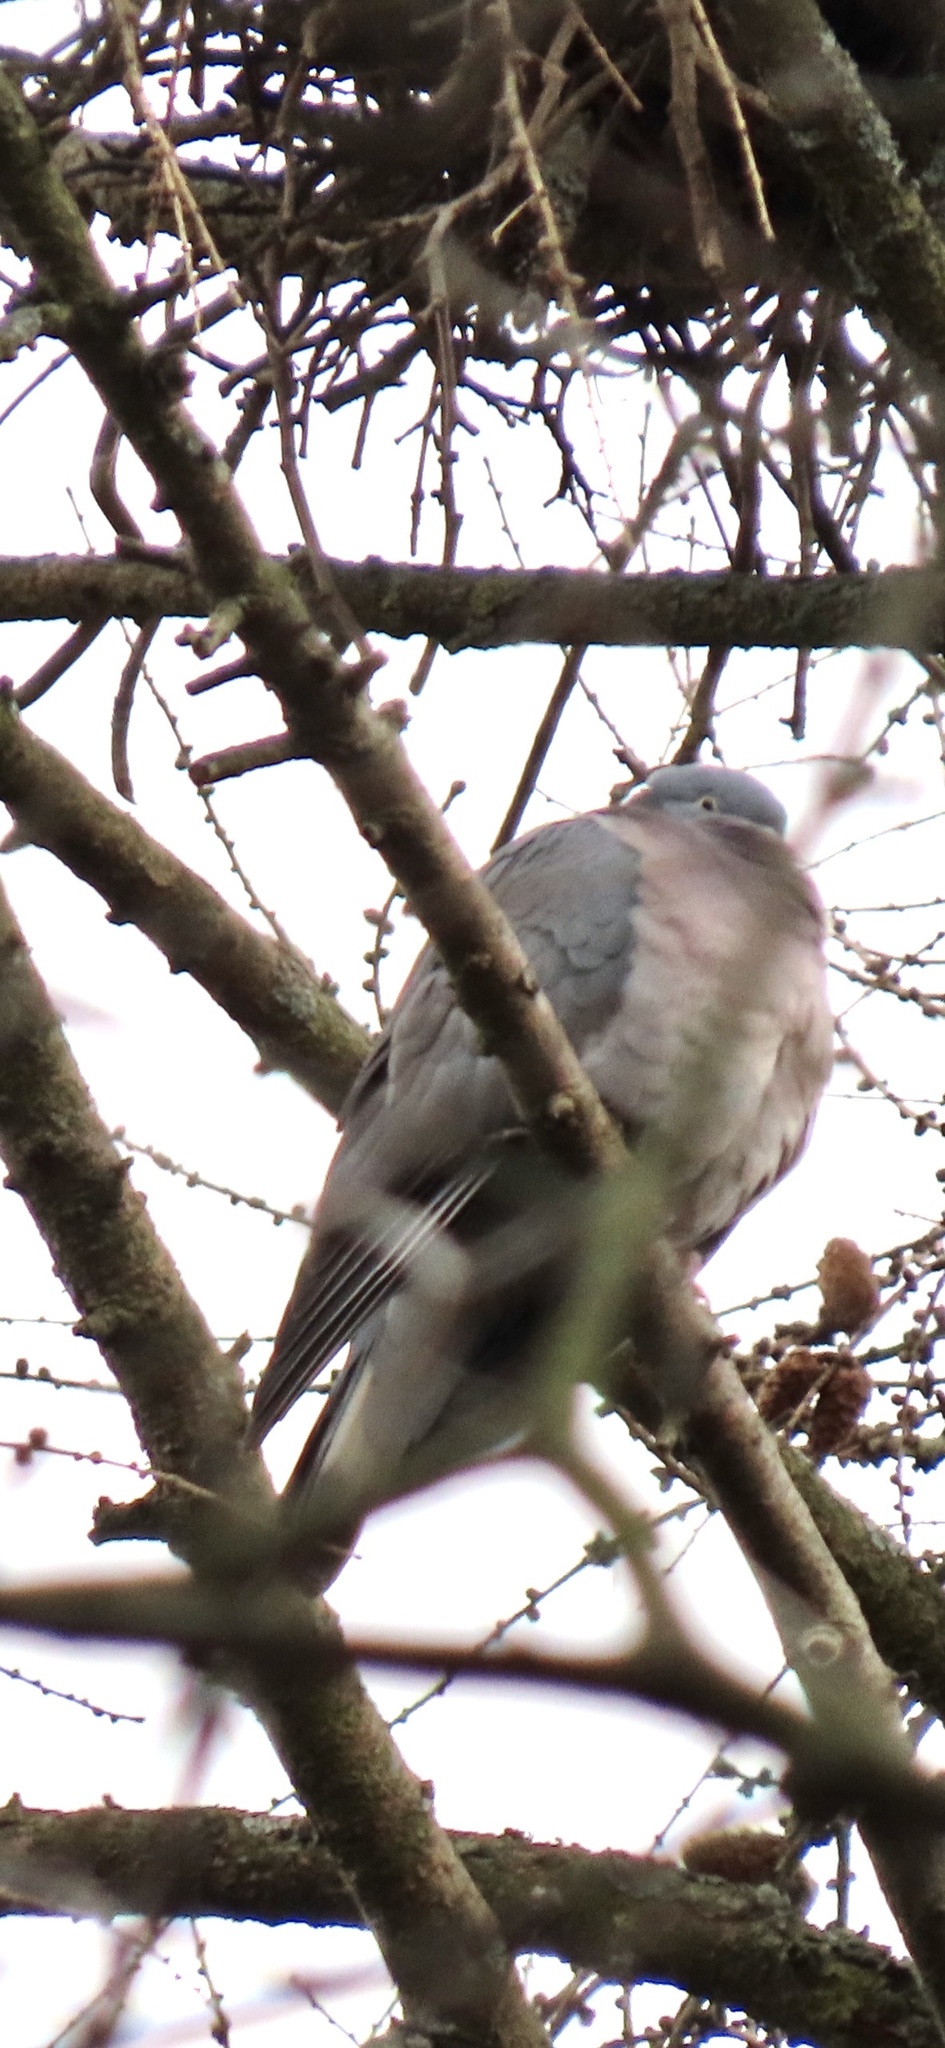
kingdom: Animalia
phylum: Chordata
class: Aves
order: Columbiformes
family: Columbidae
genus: Columba
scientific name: Columba palumbus
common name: Common wood pigeon
